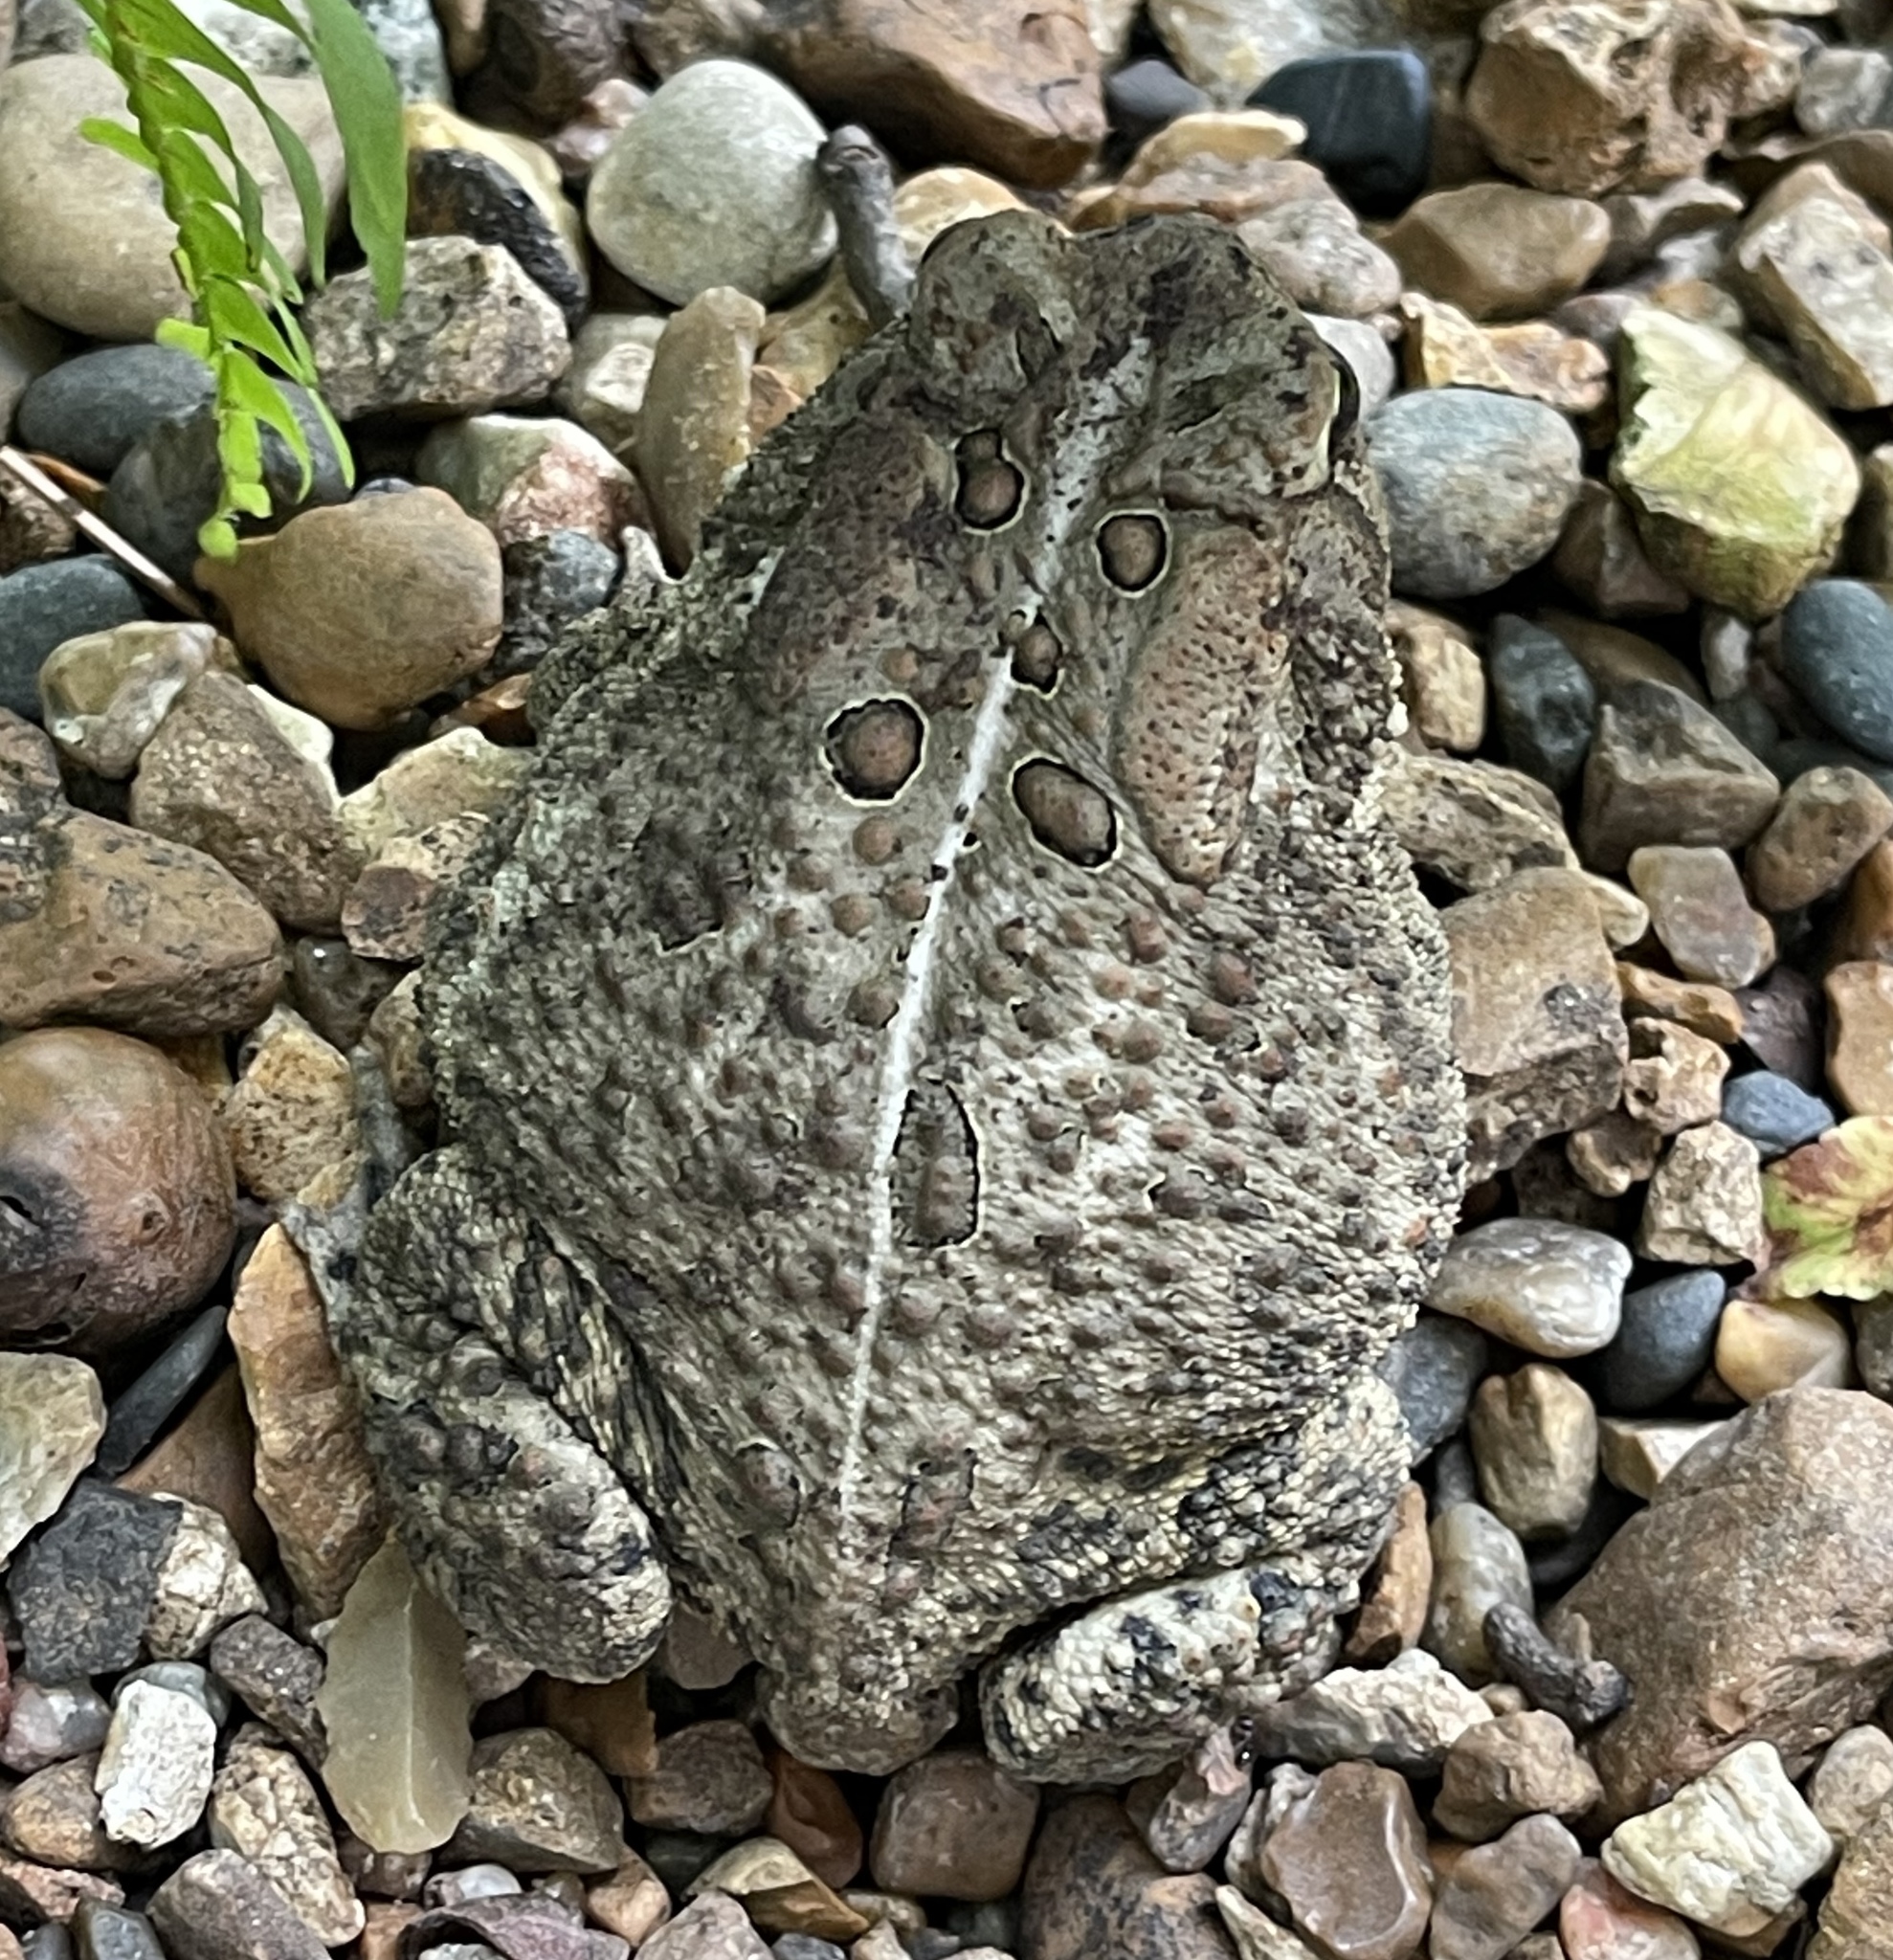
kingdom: Animalia
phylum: Chordata
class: Amphibia
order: Anura
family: Bufonidae
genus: Anaxyrus
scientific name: Anaxyrus americanus
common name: American toad
